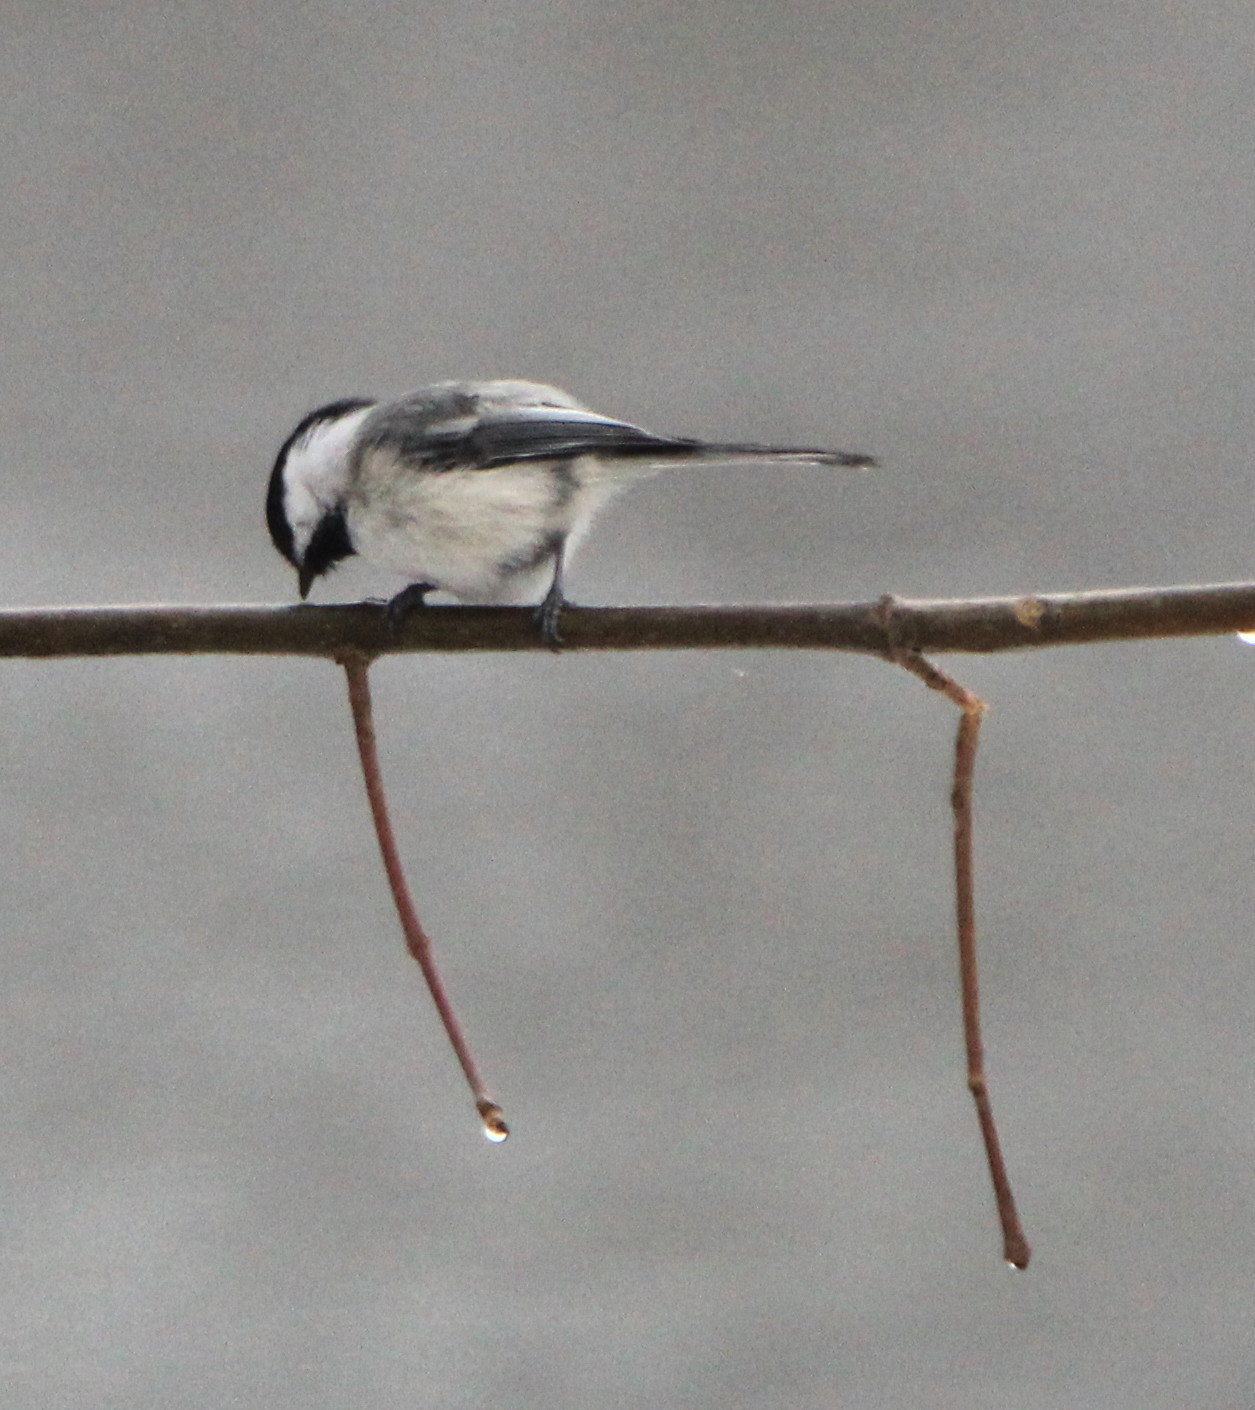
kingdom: Animalia
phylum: Chordata
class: Aves
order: Passeriformes
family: Paridae
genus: Poecile
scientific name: Poecile atricapillus
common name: Black-capped chickadee
